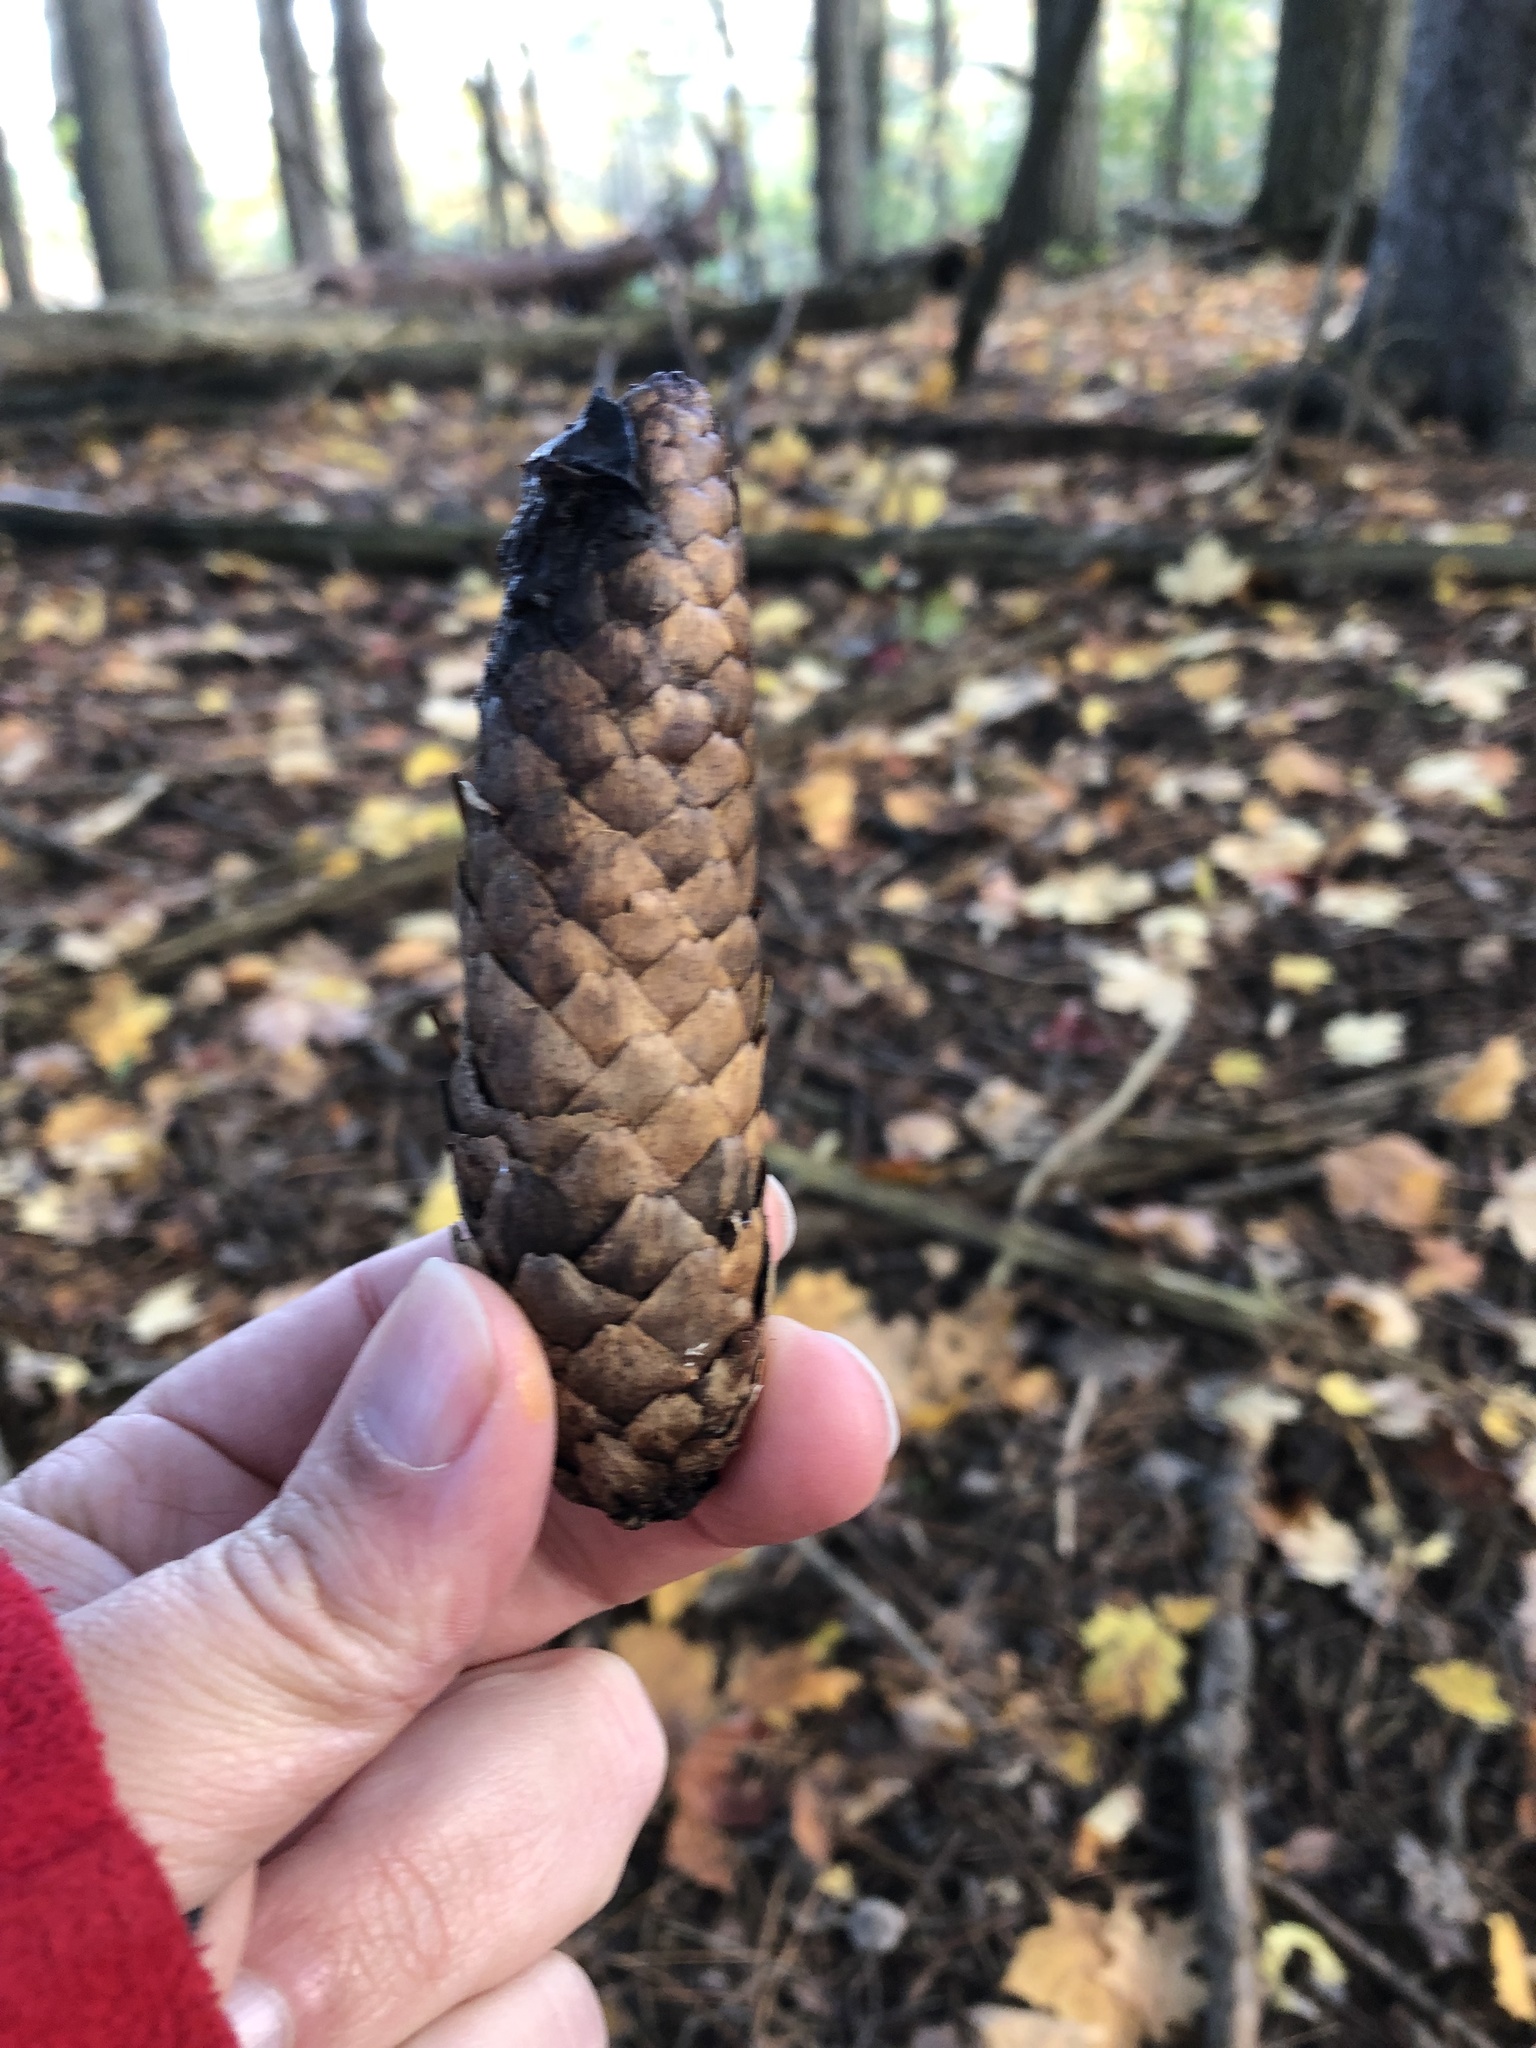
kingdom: Plantae
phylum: Tracheophyta
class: Pinopsida
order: Pinales
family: Pinaceae
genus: Picea
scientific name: Picea abies
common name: Norway spruce
